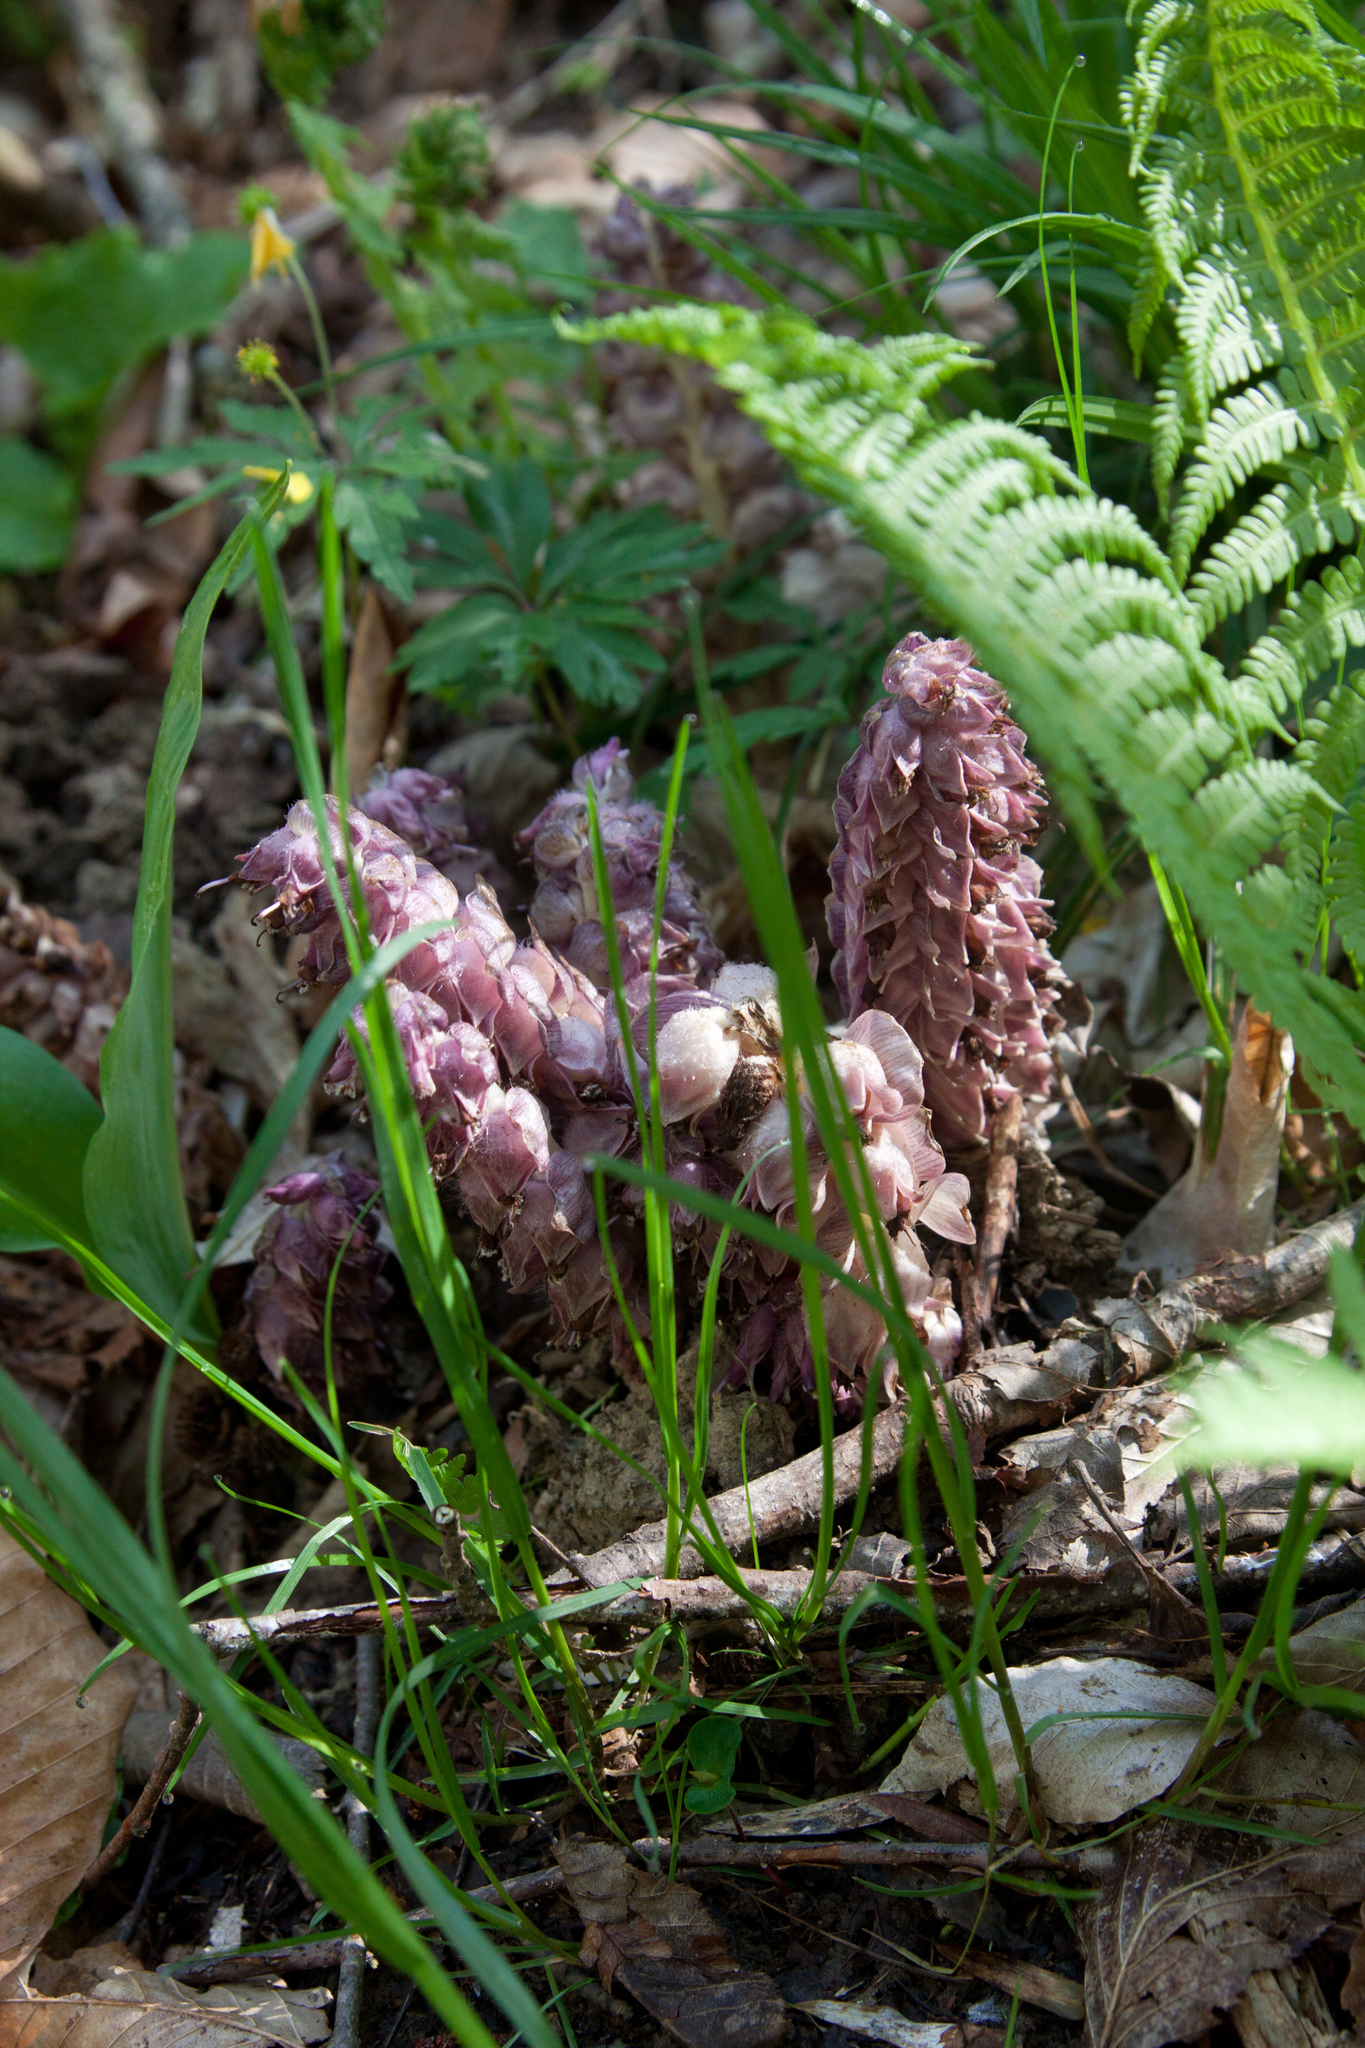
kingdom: Plantae
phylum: Tracheophyta
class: Magnoliopsida
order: Lamiales
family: Orobanchaceae
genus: Lathraea
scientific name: Lathraea squamaria
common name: Toothwort
